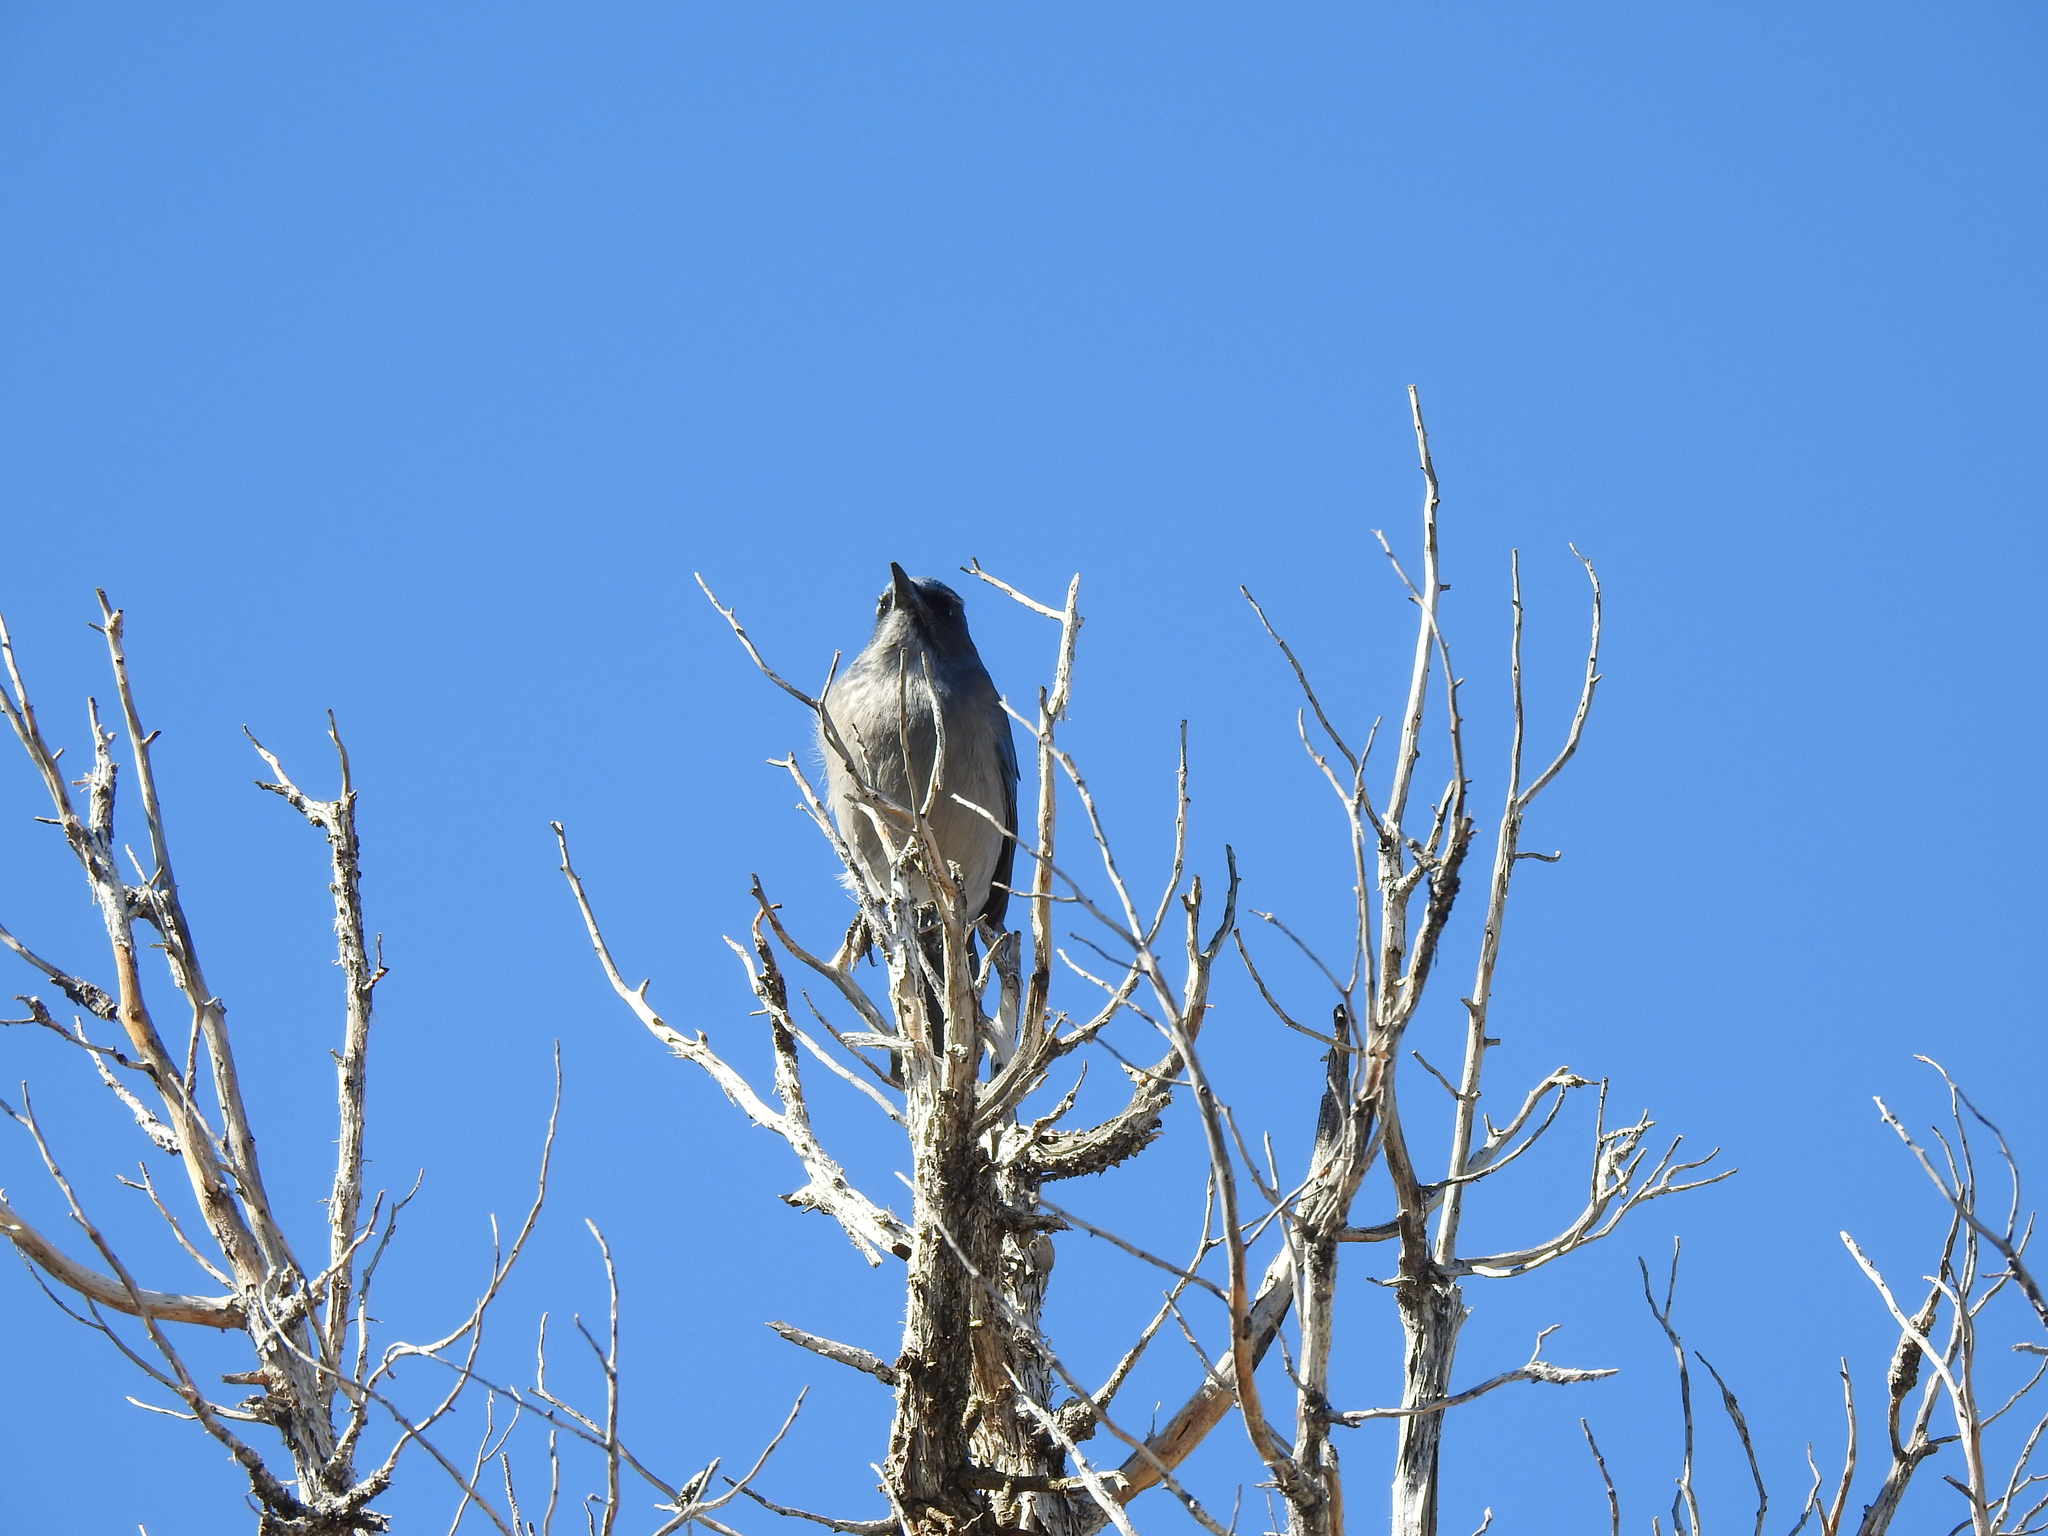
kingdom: Animalia
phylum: Chordata
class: Aves
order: Passeriformes
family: Corvidae
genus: Aphelocoma
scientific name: Aphelocoma woodhouseii
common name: Woodhouse's scrub-jay
